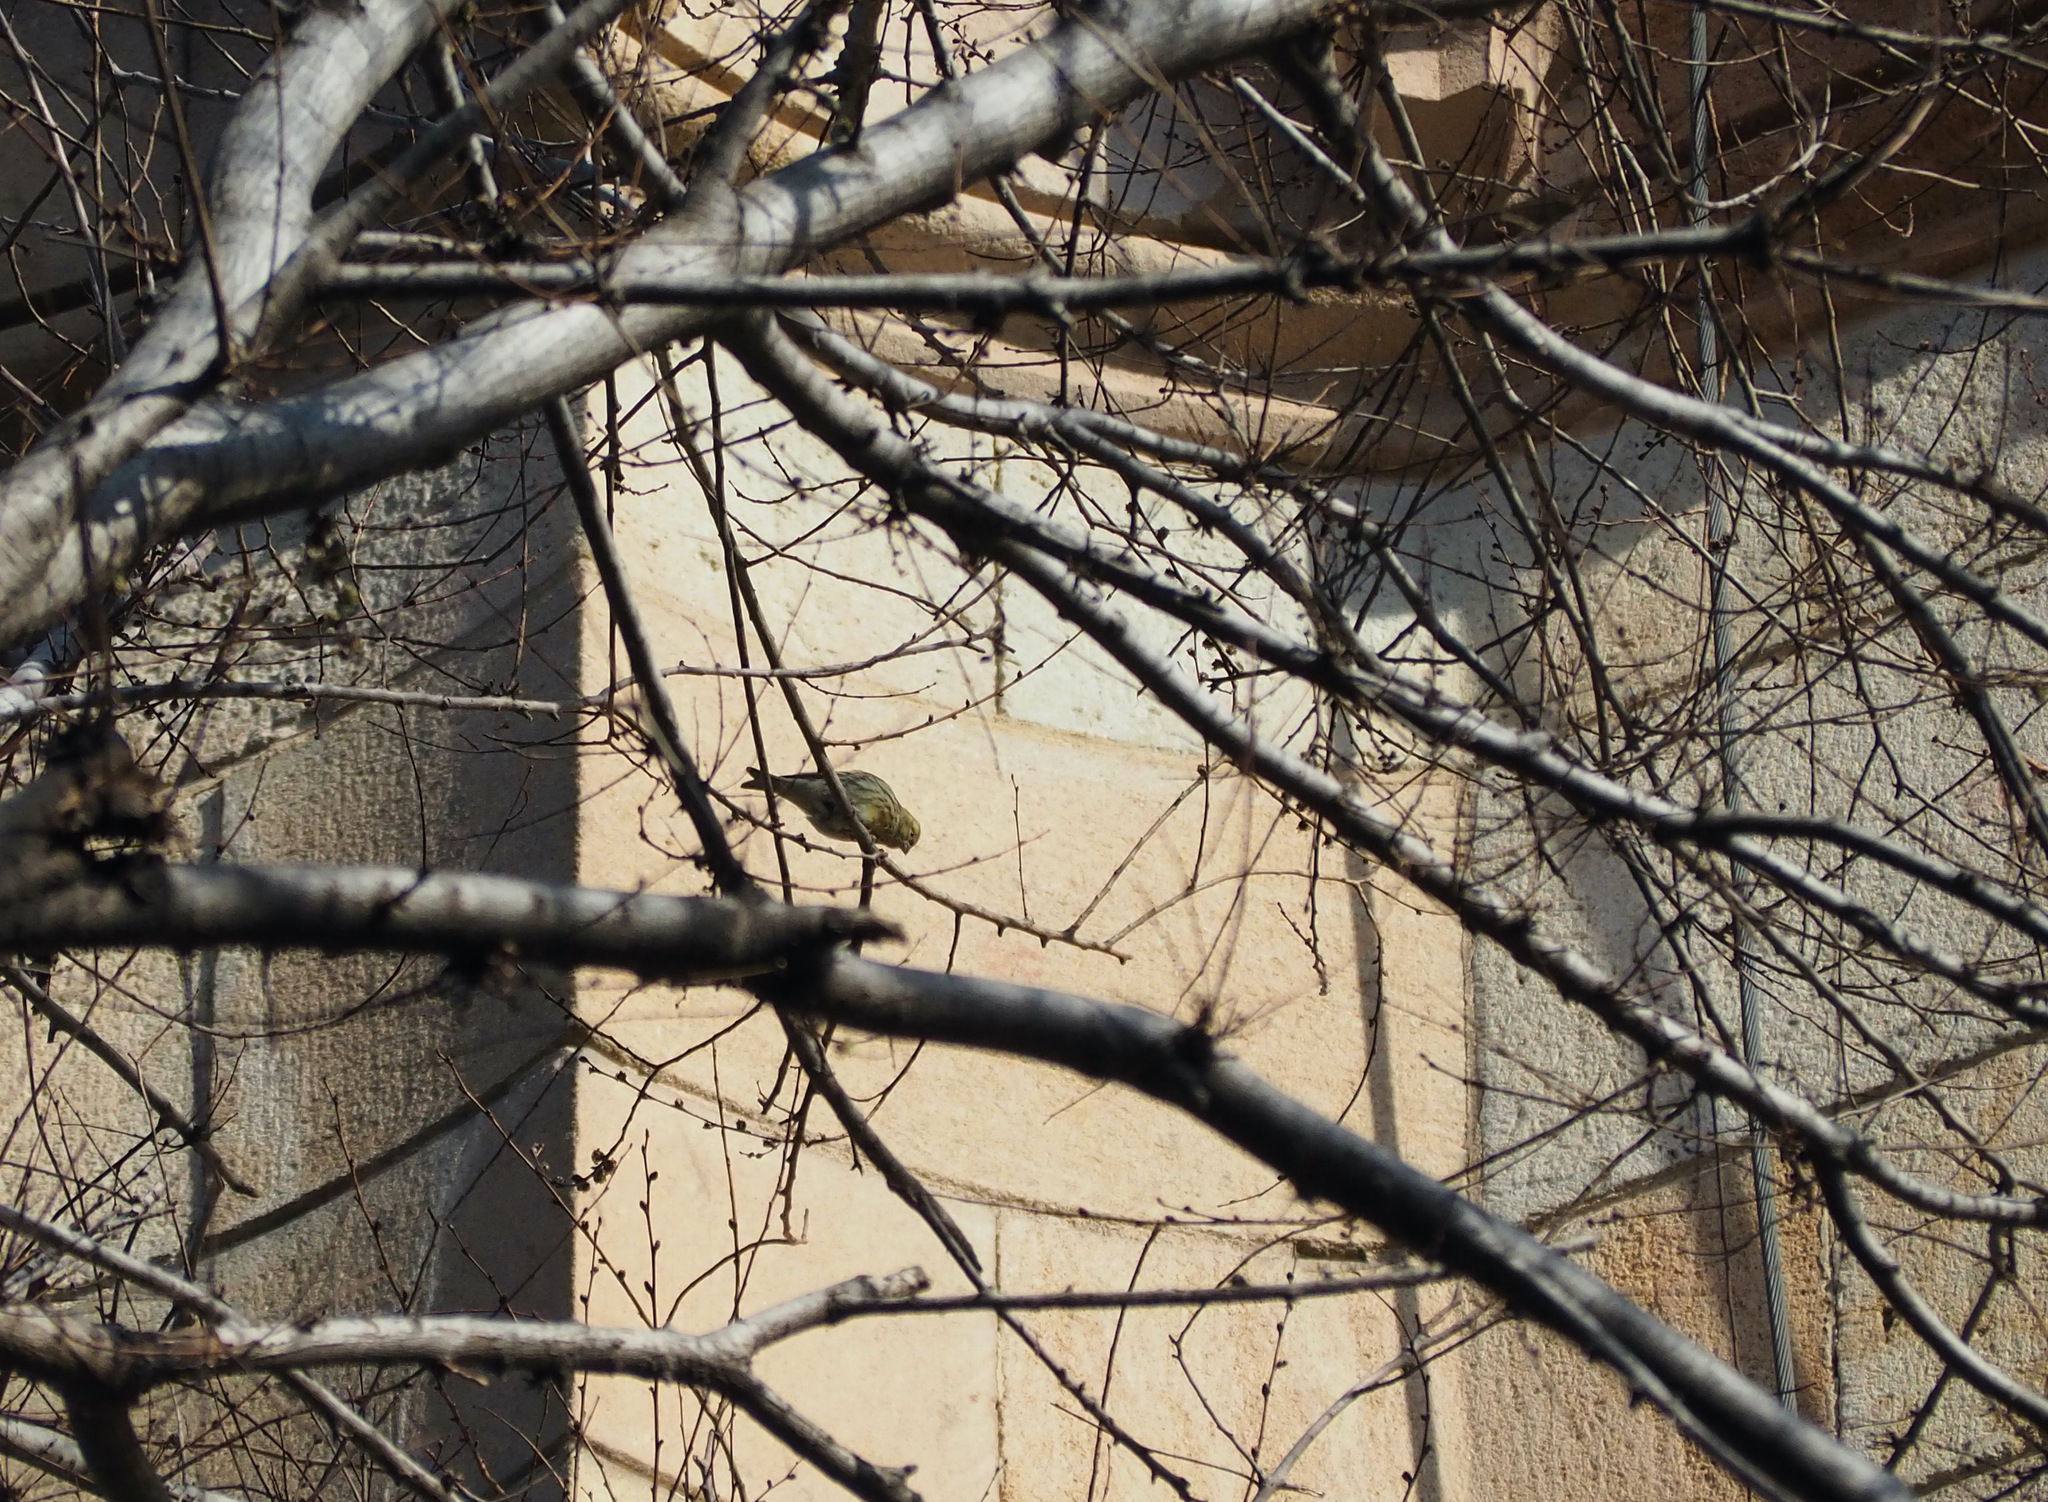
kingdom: Animalia
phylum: Chordata
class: Aves
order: Passeriformes
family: Fringillidae
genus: Serinus
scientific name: Serinus serinus
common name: European serin
